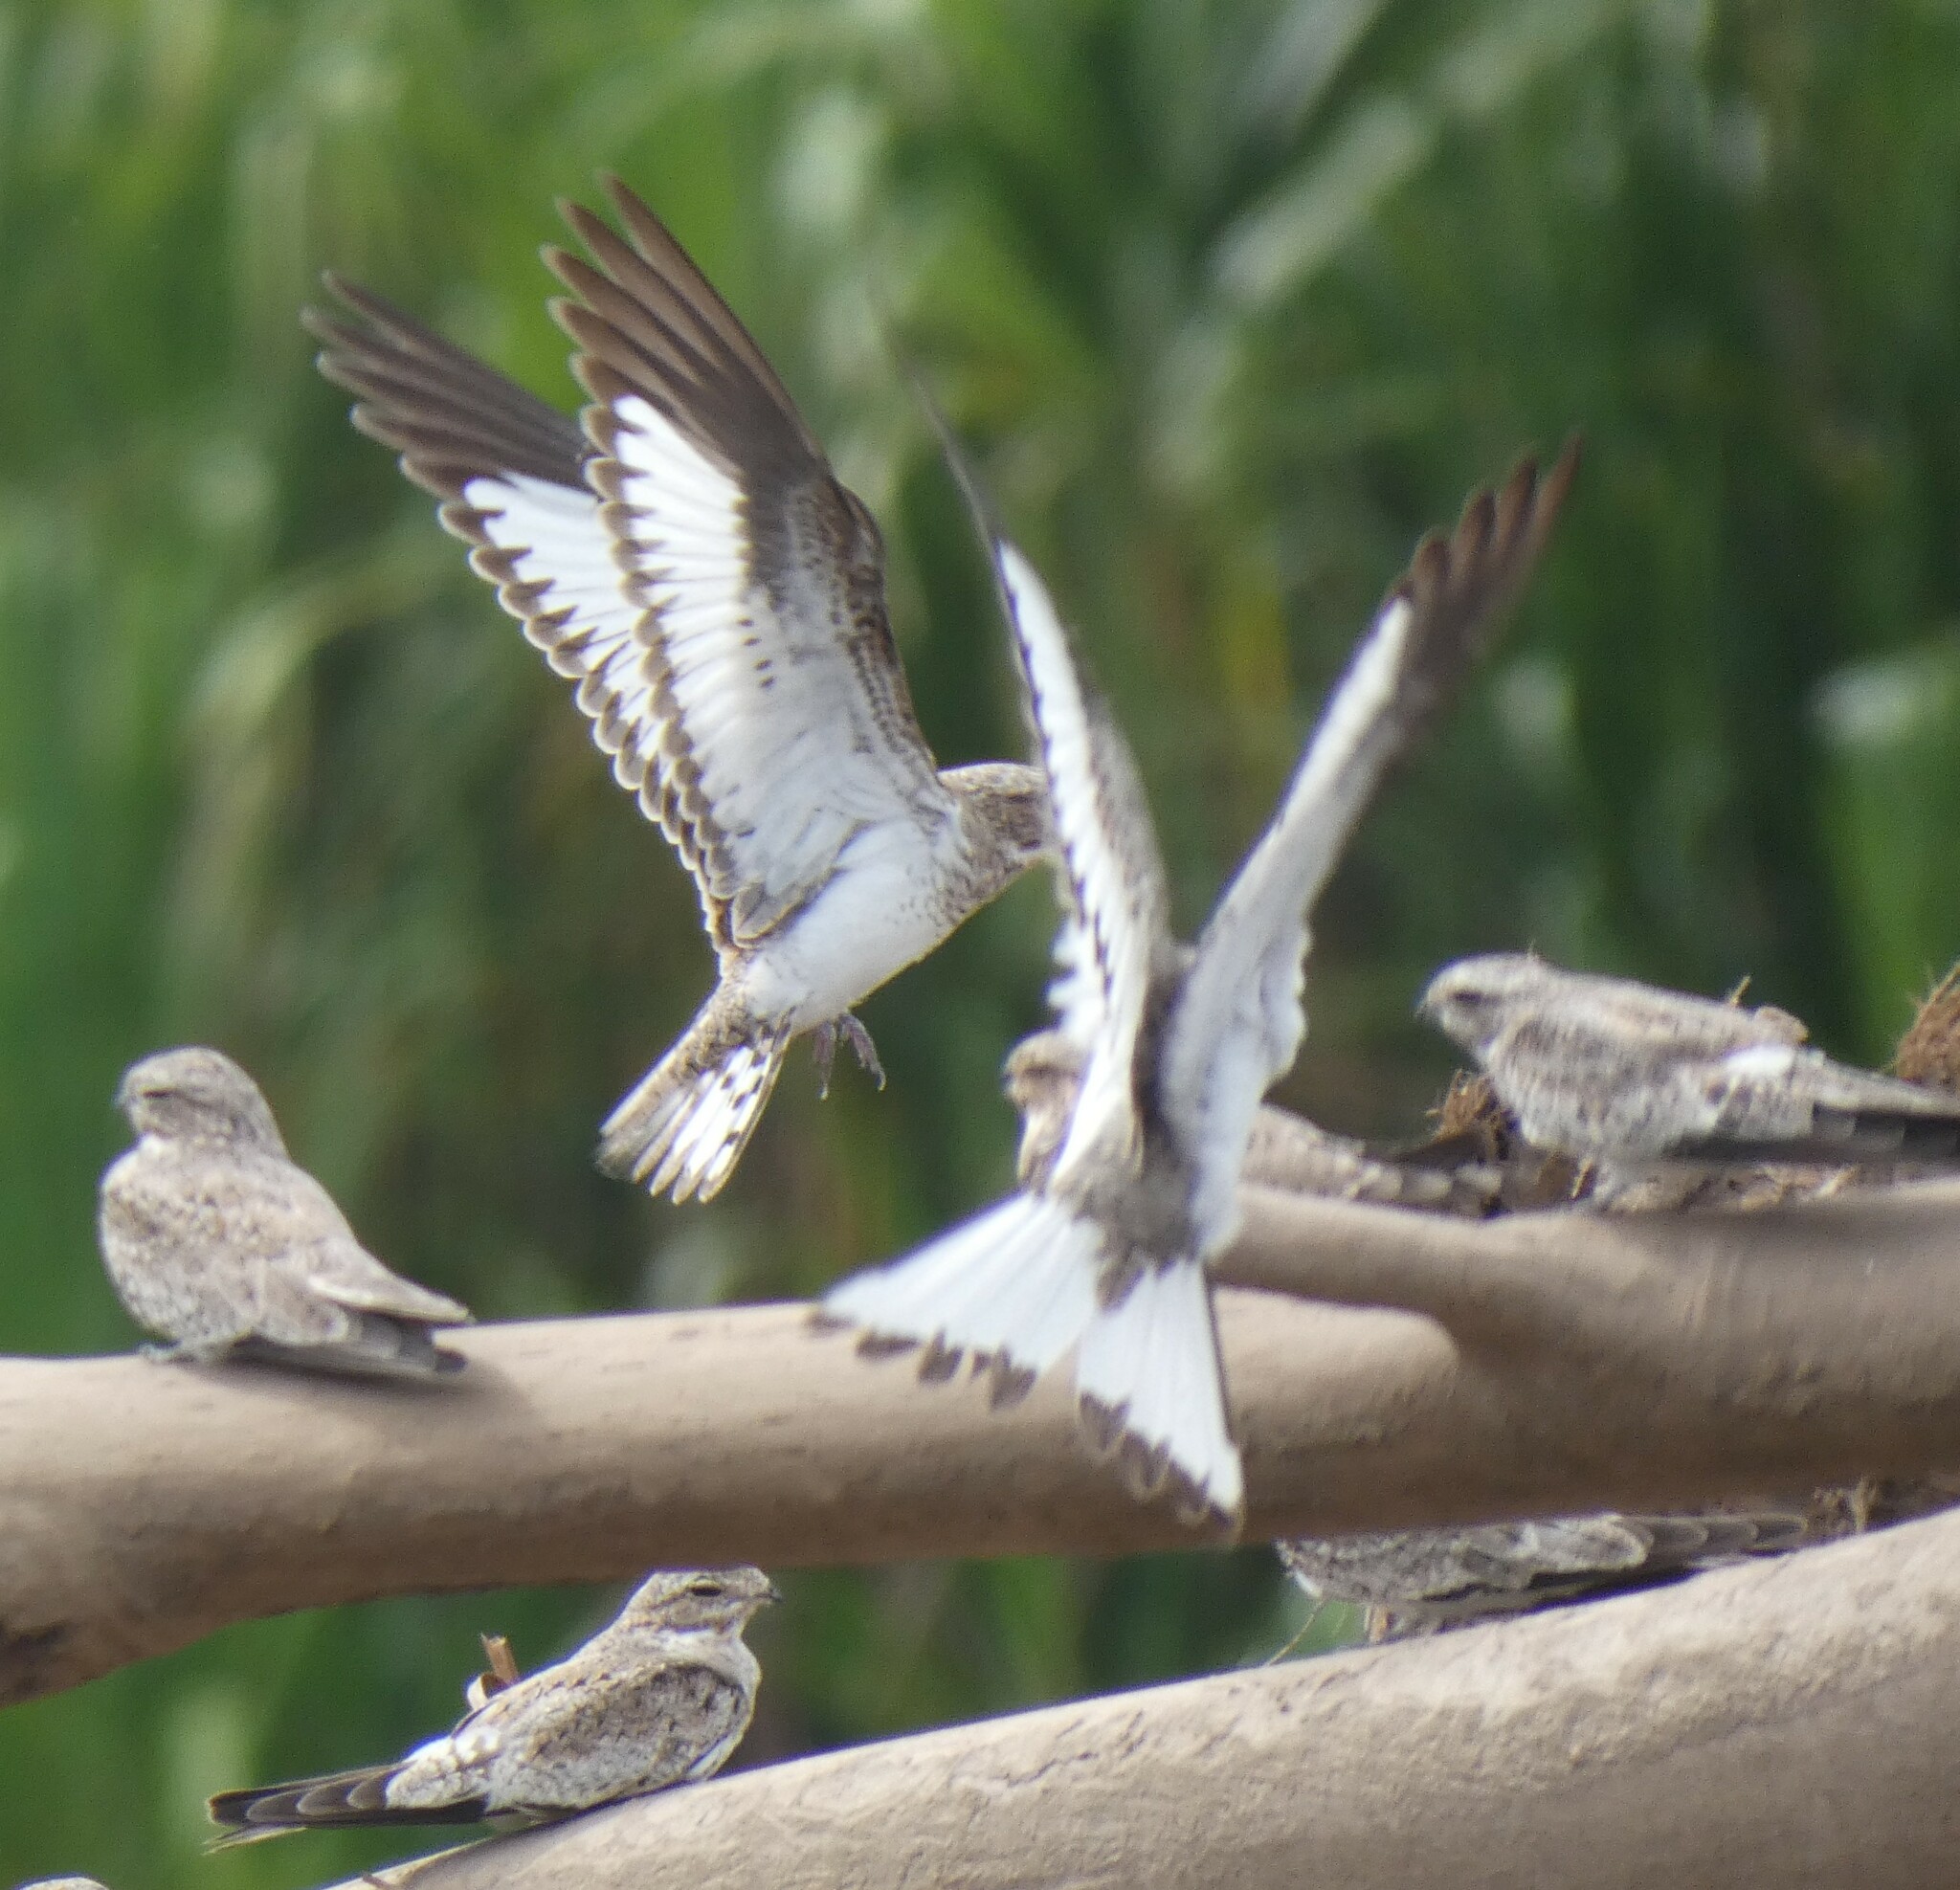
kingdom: Animalia
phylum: Chordata
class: Aves
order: Caprimulgiformes
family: Caprimulgidae
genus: Chordeiles
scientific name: Chordeiles rupestris
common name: Sand-colored nighthawk
